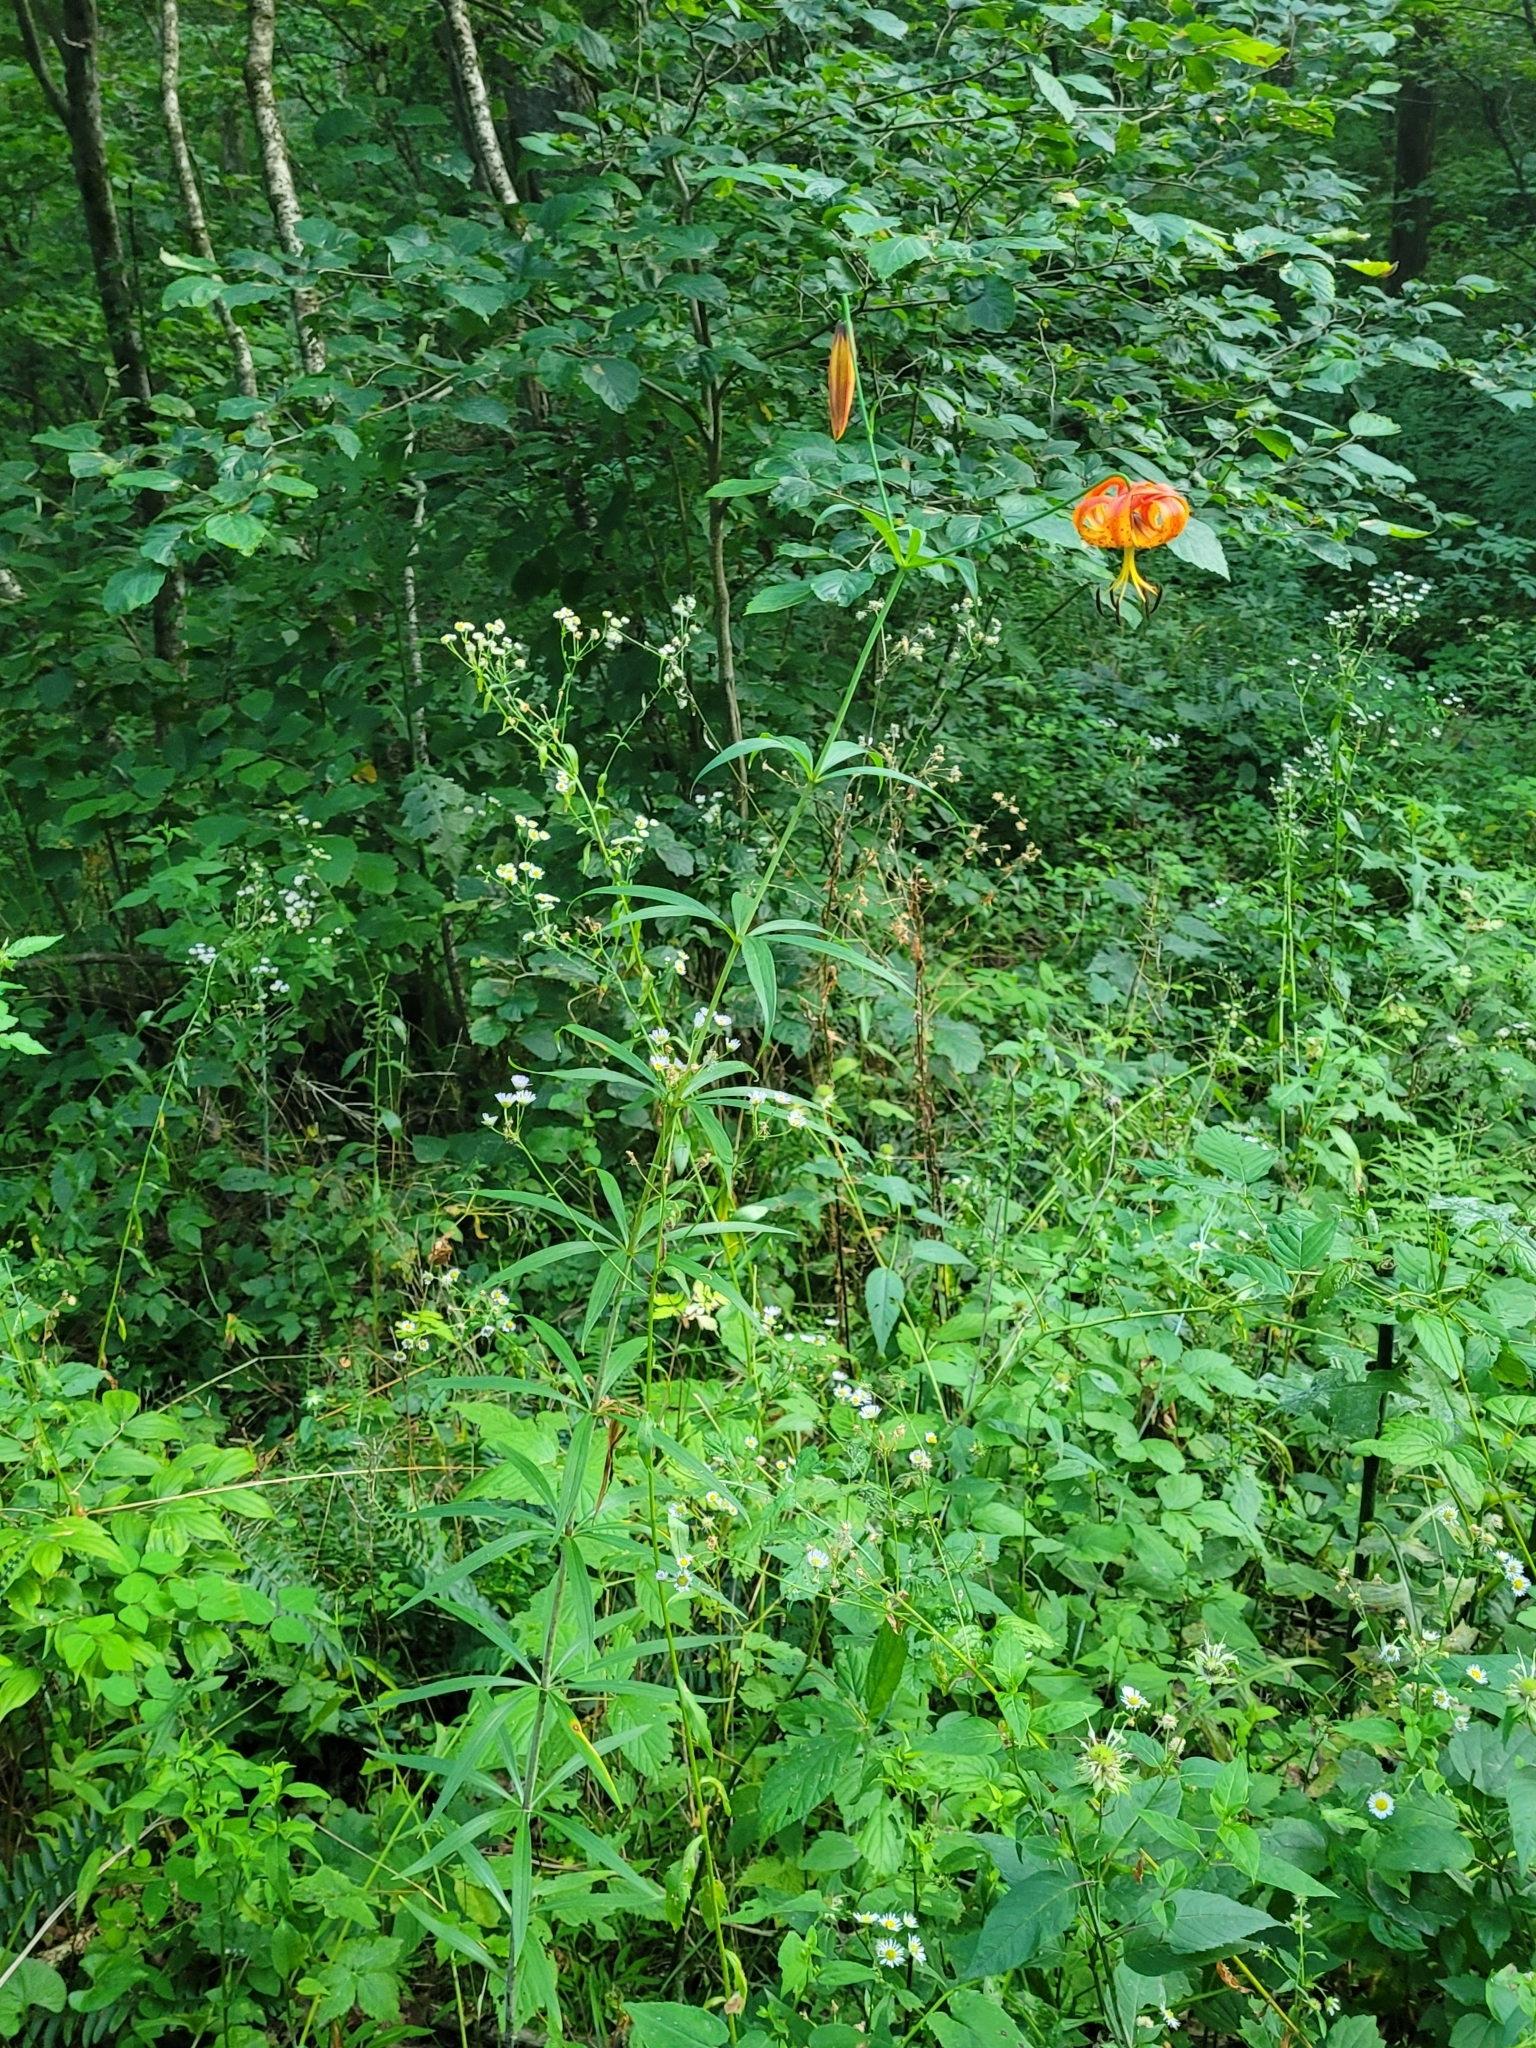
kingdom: Plantae
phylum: Tracheophyta
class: Liliopsida
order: Liliales
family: Liliaceae
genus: Lilium
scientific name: Lilium superbum
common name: American turk's-cap lily
